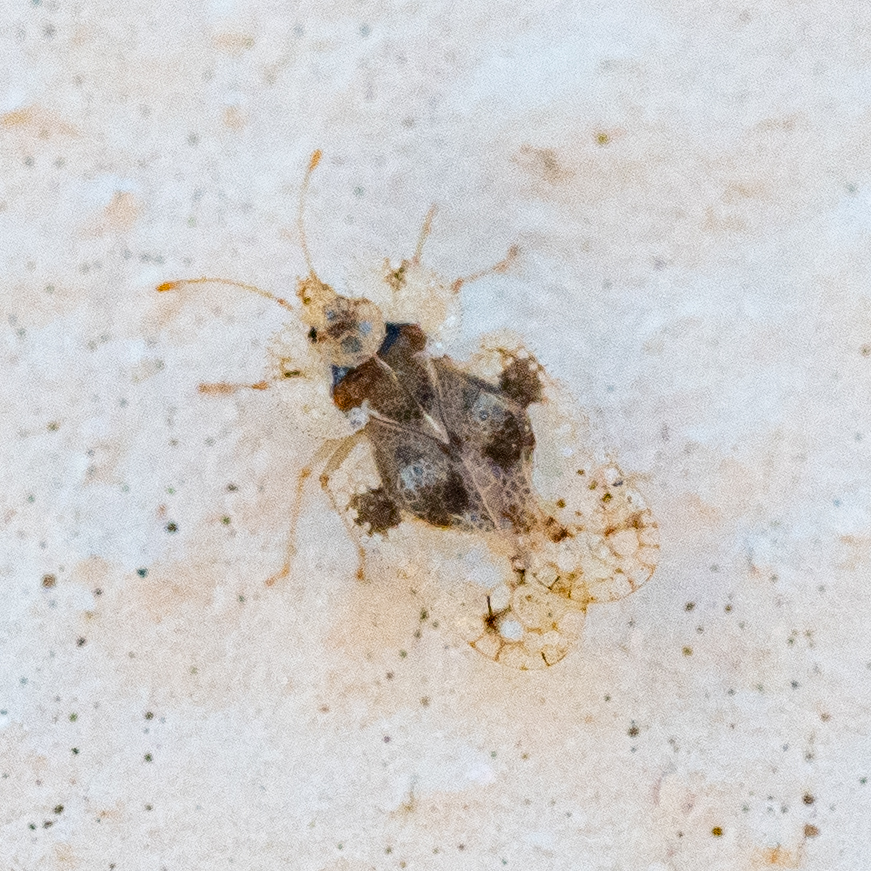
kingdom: Animalia
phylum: Arthropoda
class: Insecta
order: Hemiptera
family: Tingidae
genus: Corythucha
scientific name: Corythucha arcuata
